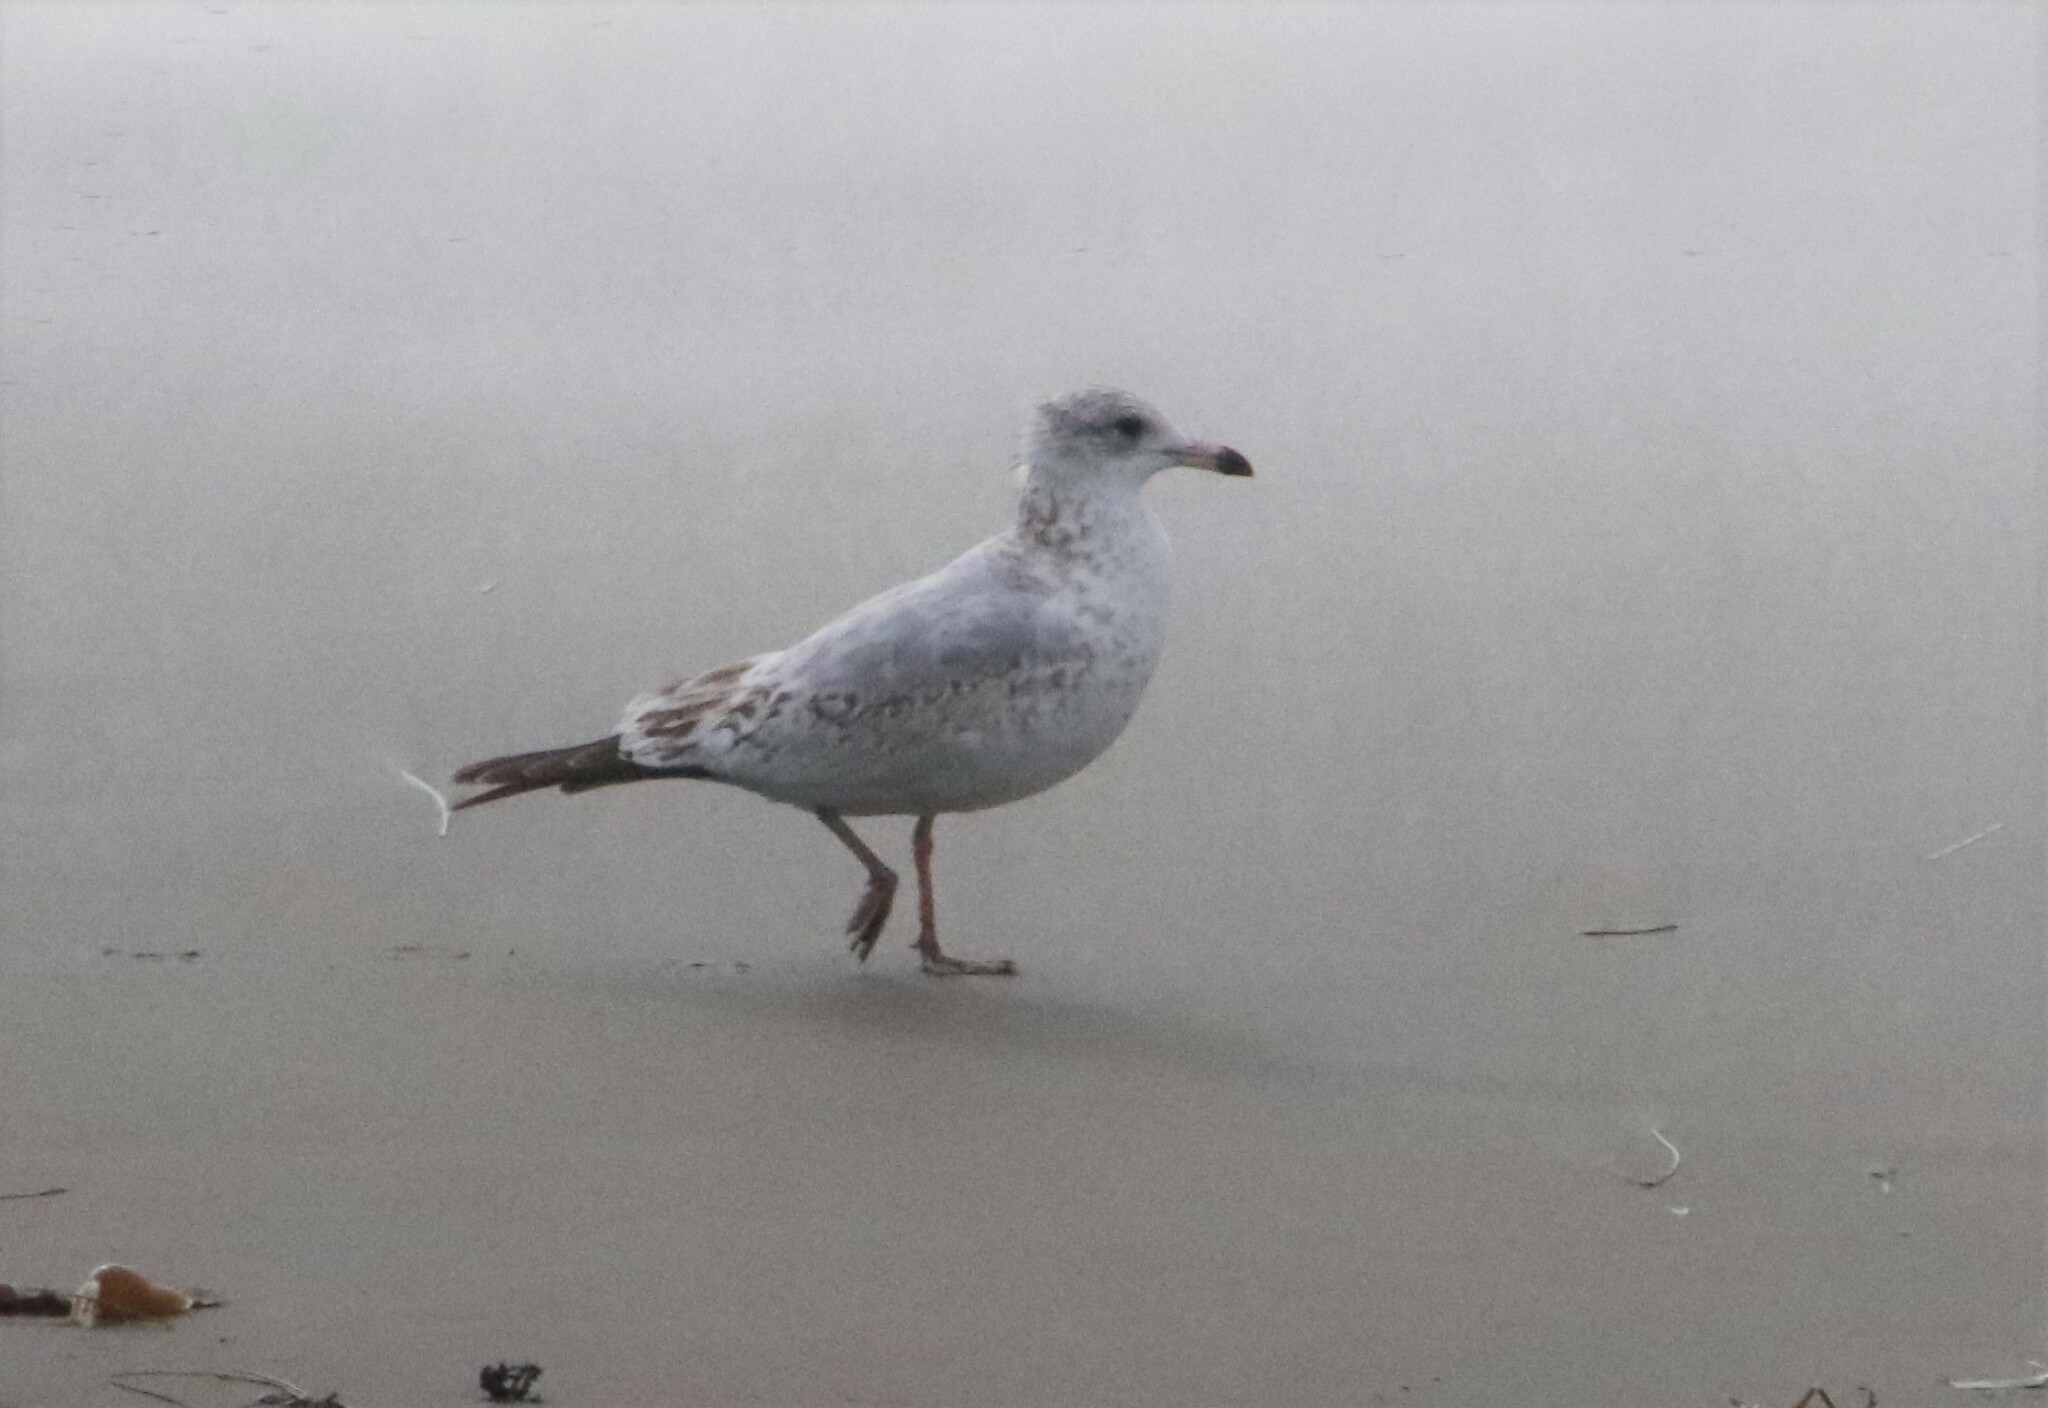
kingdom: Animalia
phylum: Chordata
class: Aves
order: Charadriiformes
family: Laridae
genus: Larus
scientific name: Larus delawarensis
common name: Ring-billed gull
